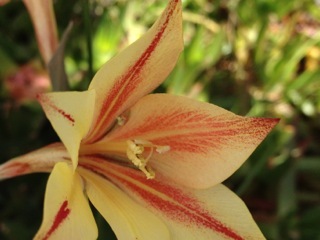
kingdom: Plantae
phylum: Tracheophyta
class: Liliopsida
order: Asparagales
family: Iridaceae
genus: Gladiolus
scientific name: Gladiolus tristis
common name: Ever-flowering gladiolus
